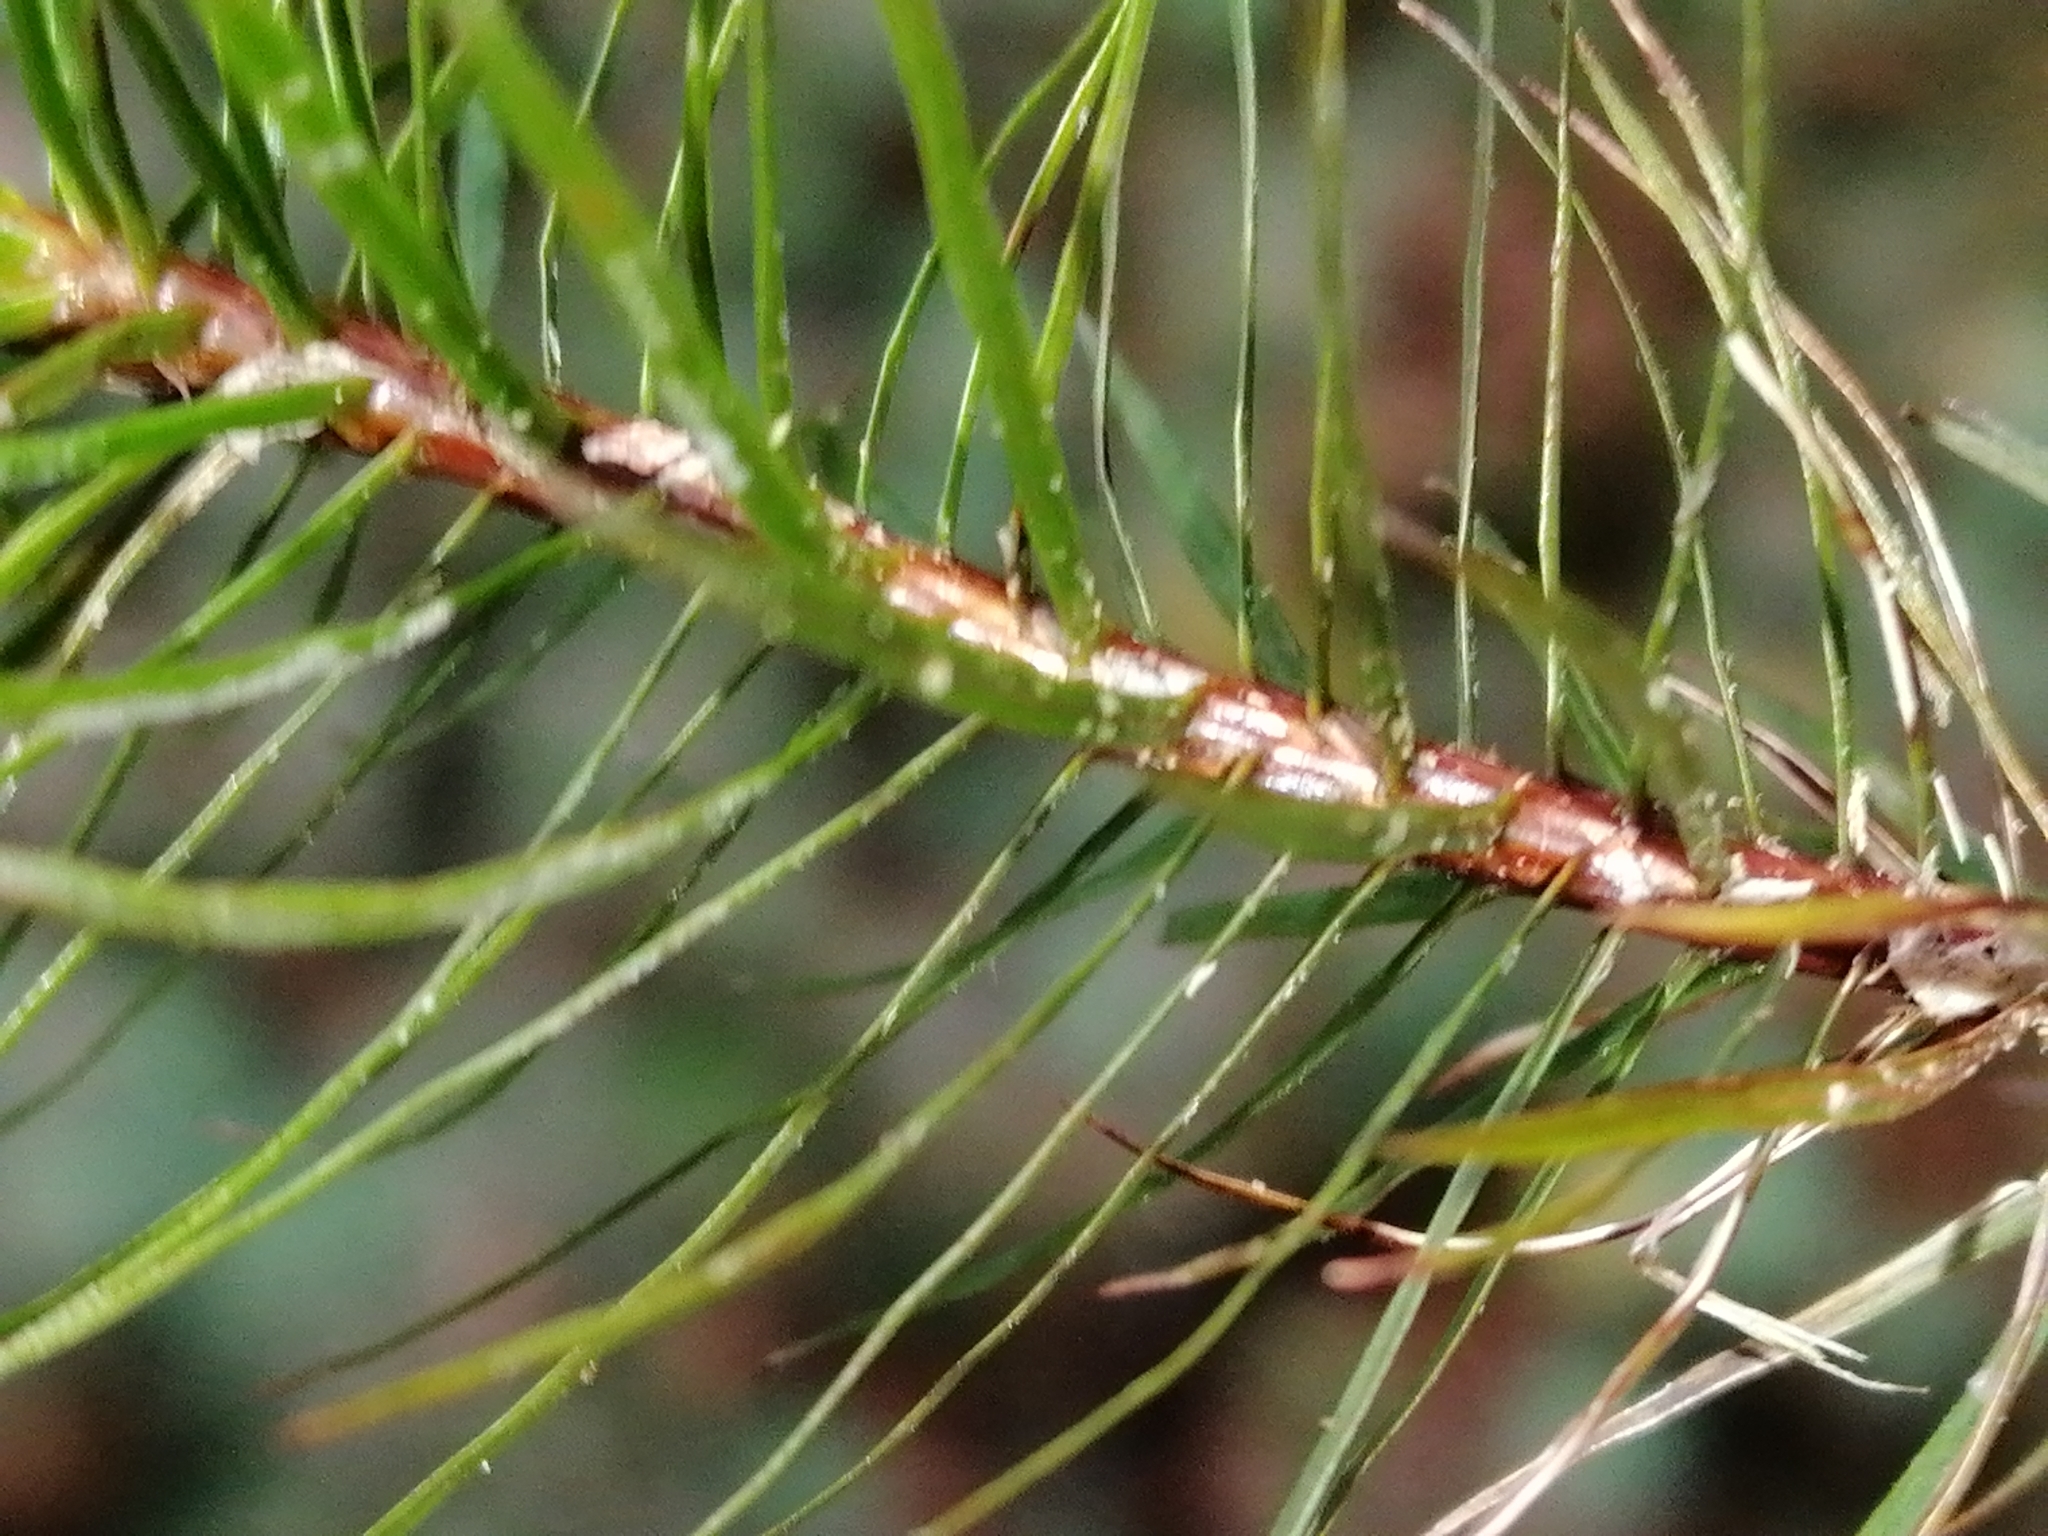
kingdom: Plantae
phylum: Bryophyta
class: Polytrichopsida
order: Polytrichales
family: Polytrichaceae
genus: Dawsonia
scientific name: Dawsonia superba
